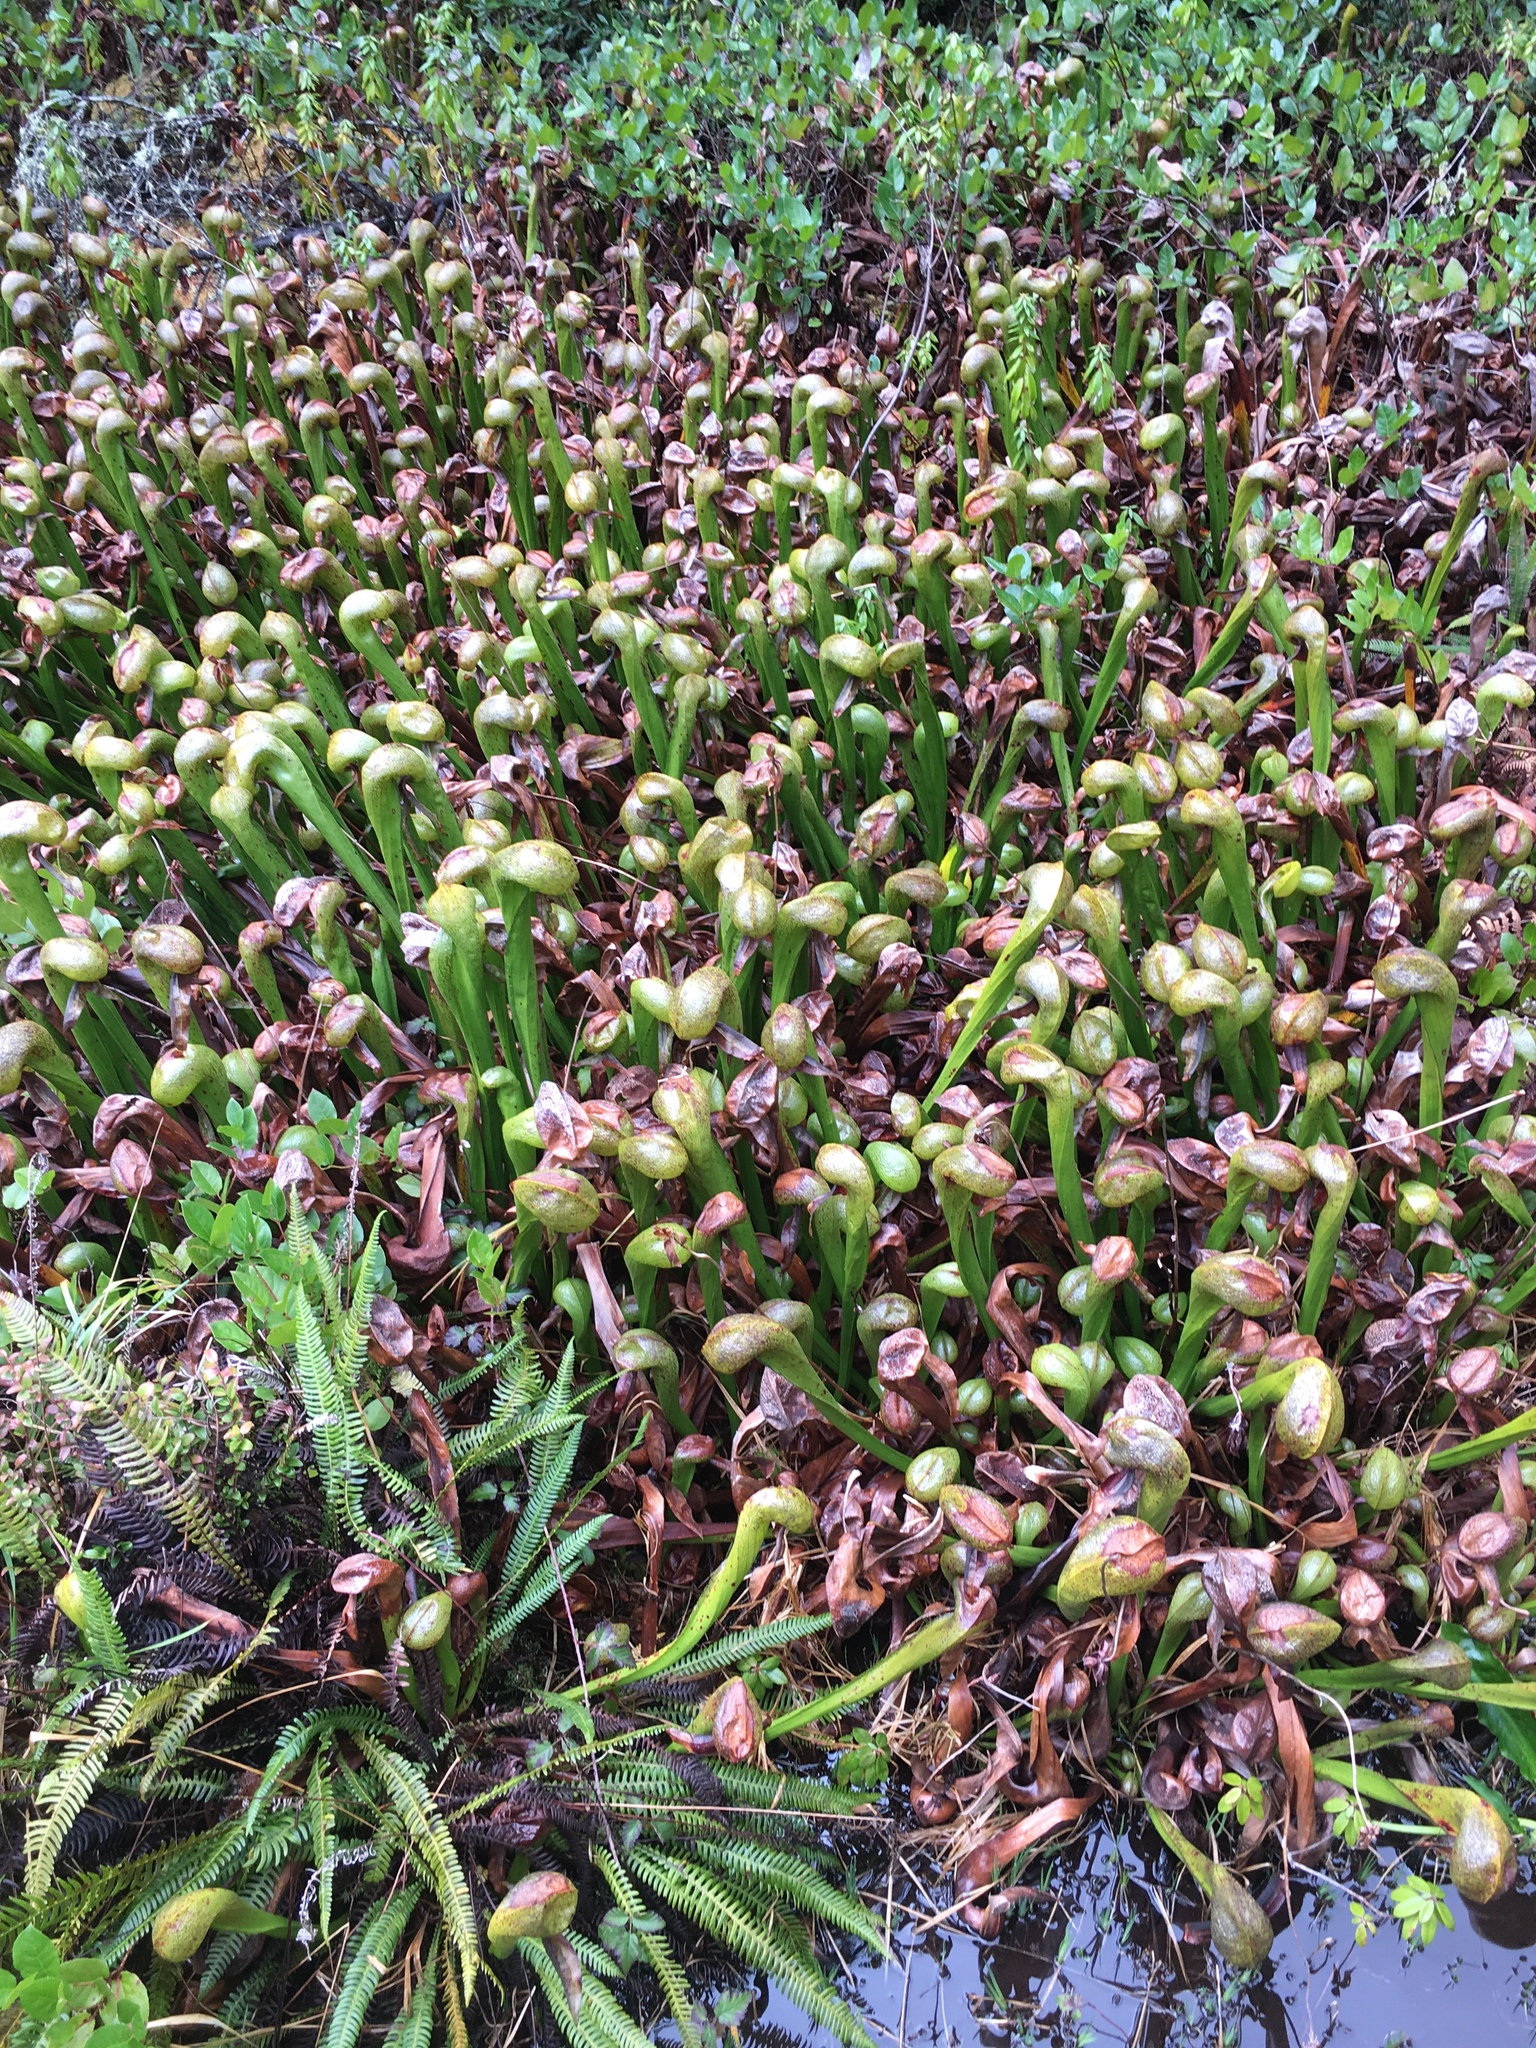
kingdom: Plantae
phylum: Tracheophyta
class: Magnoliopsida
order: Ericales
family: Sarraceniaceae
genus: Darlingtonia
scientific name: Darlingtonia californica
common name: California pitcher plant
